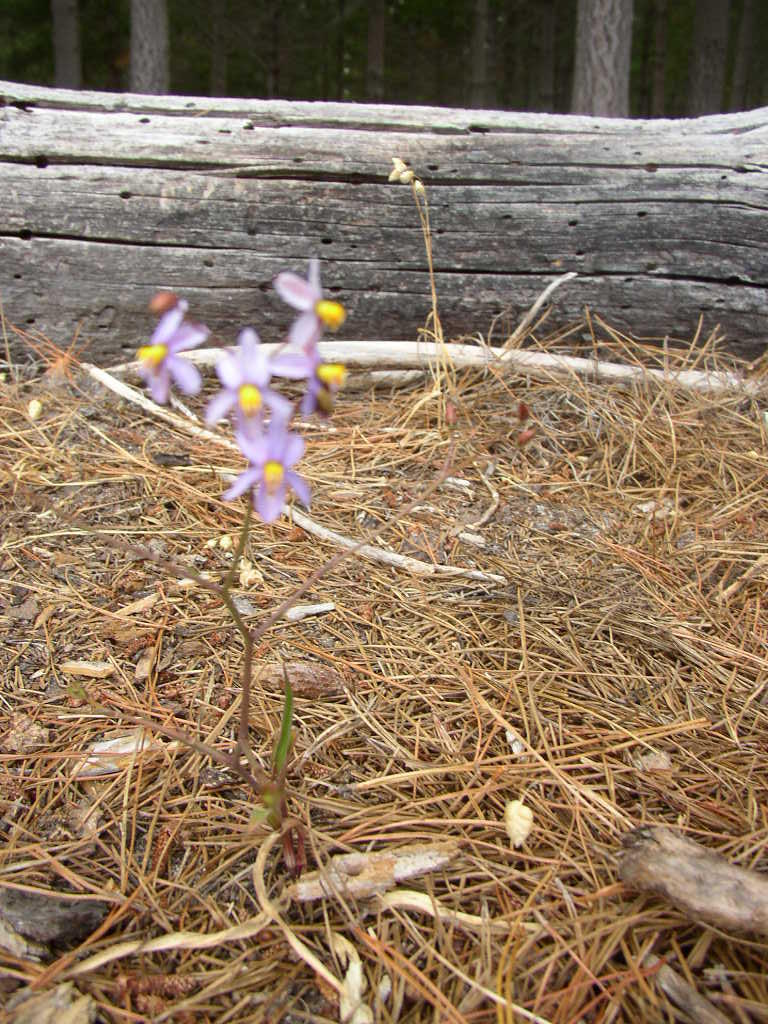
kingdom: Plantae
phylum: Tracheophyta
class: Liliopsida
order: Asparagales
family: Tecophilaeaceae
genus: Cyanella
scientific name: Cyanella hyacinthoides
